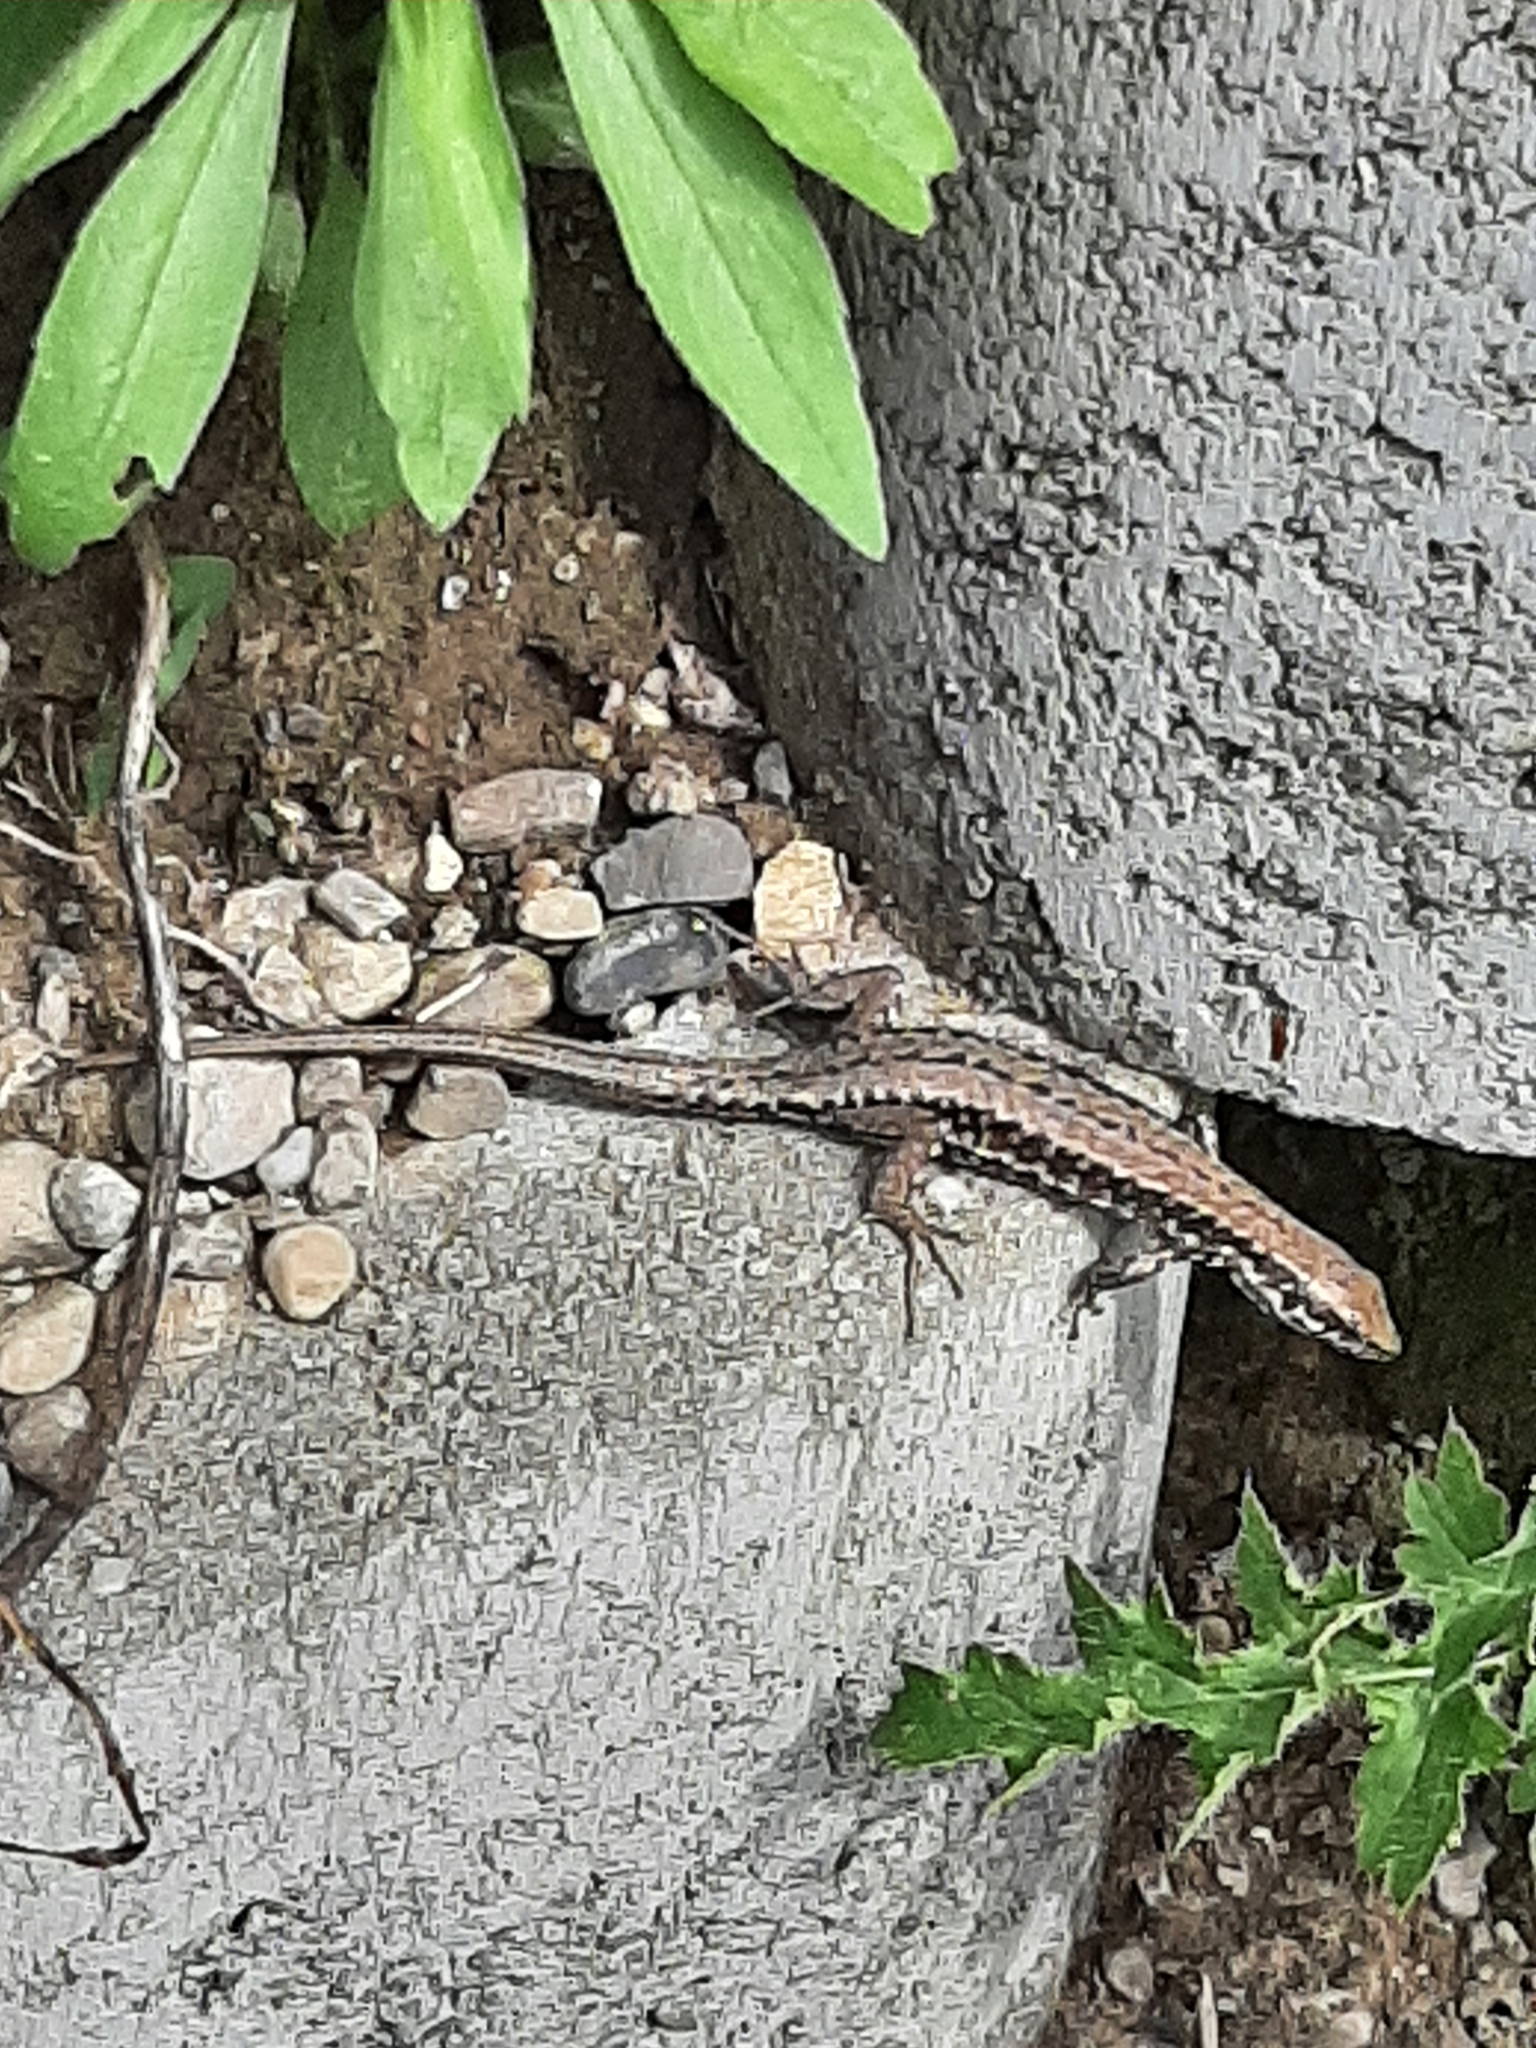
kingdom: Animalia
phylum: Chordata
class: Squamata
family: Lacertidae
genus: Podarcis
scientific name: Podarcis muralis
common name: Common wall lizard
